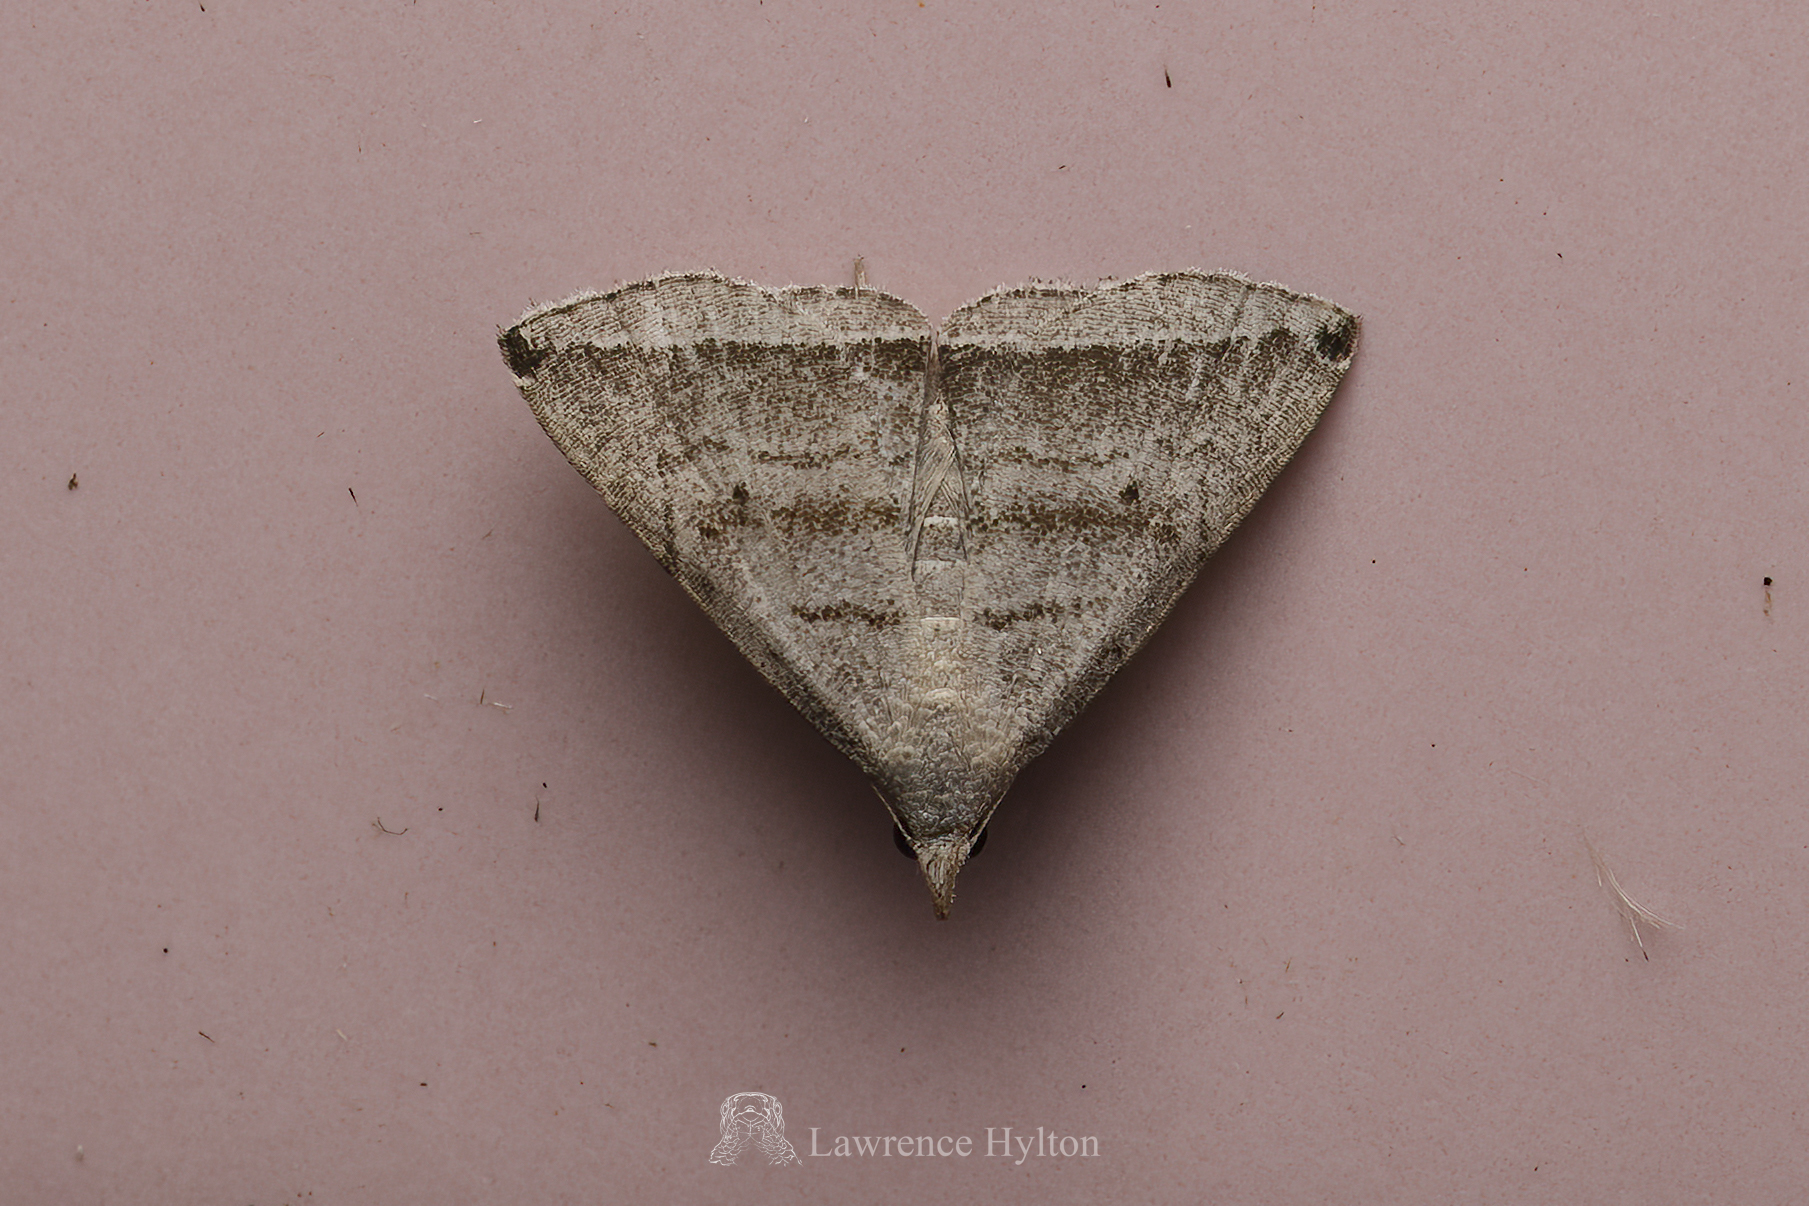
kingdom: Animalia
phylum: Arthropoda
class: Insecta
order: Lepidoptera
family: Erebidae
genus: Polypogon
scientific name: Polypogon neleusalis
